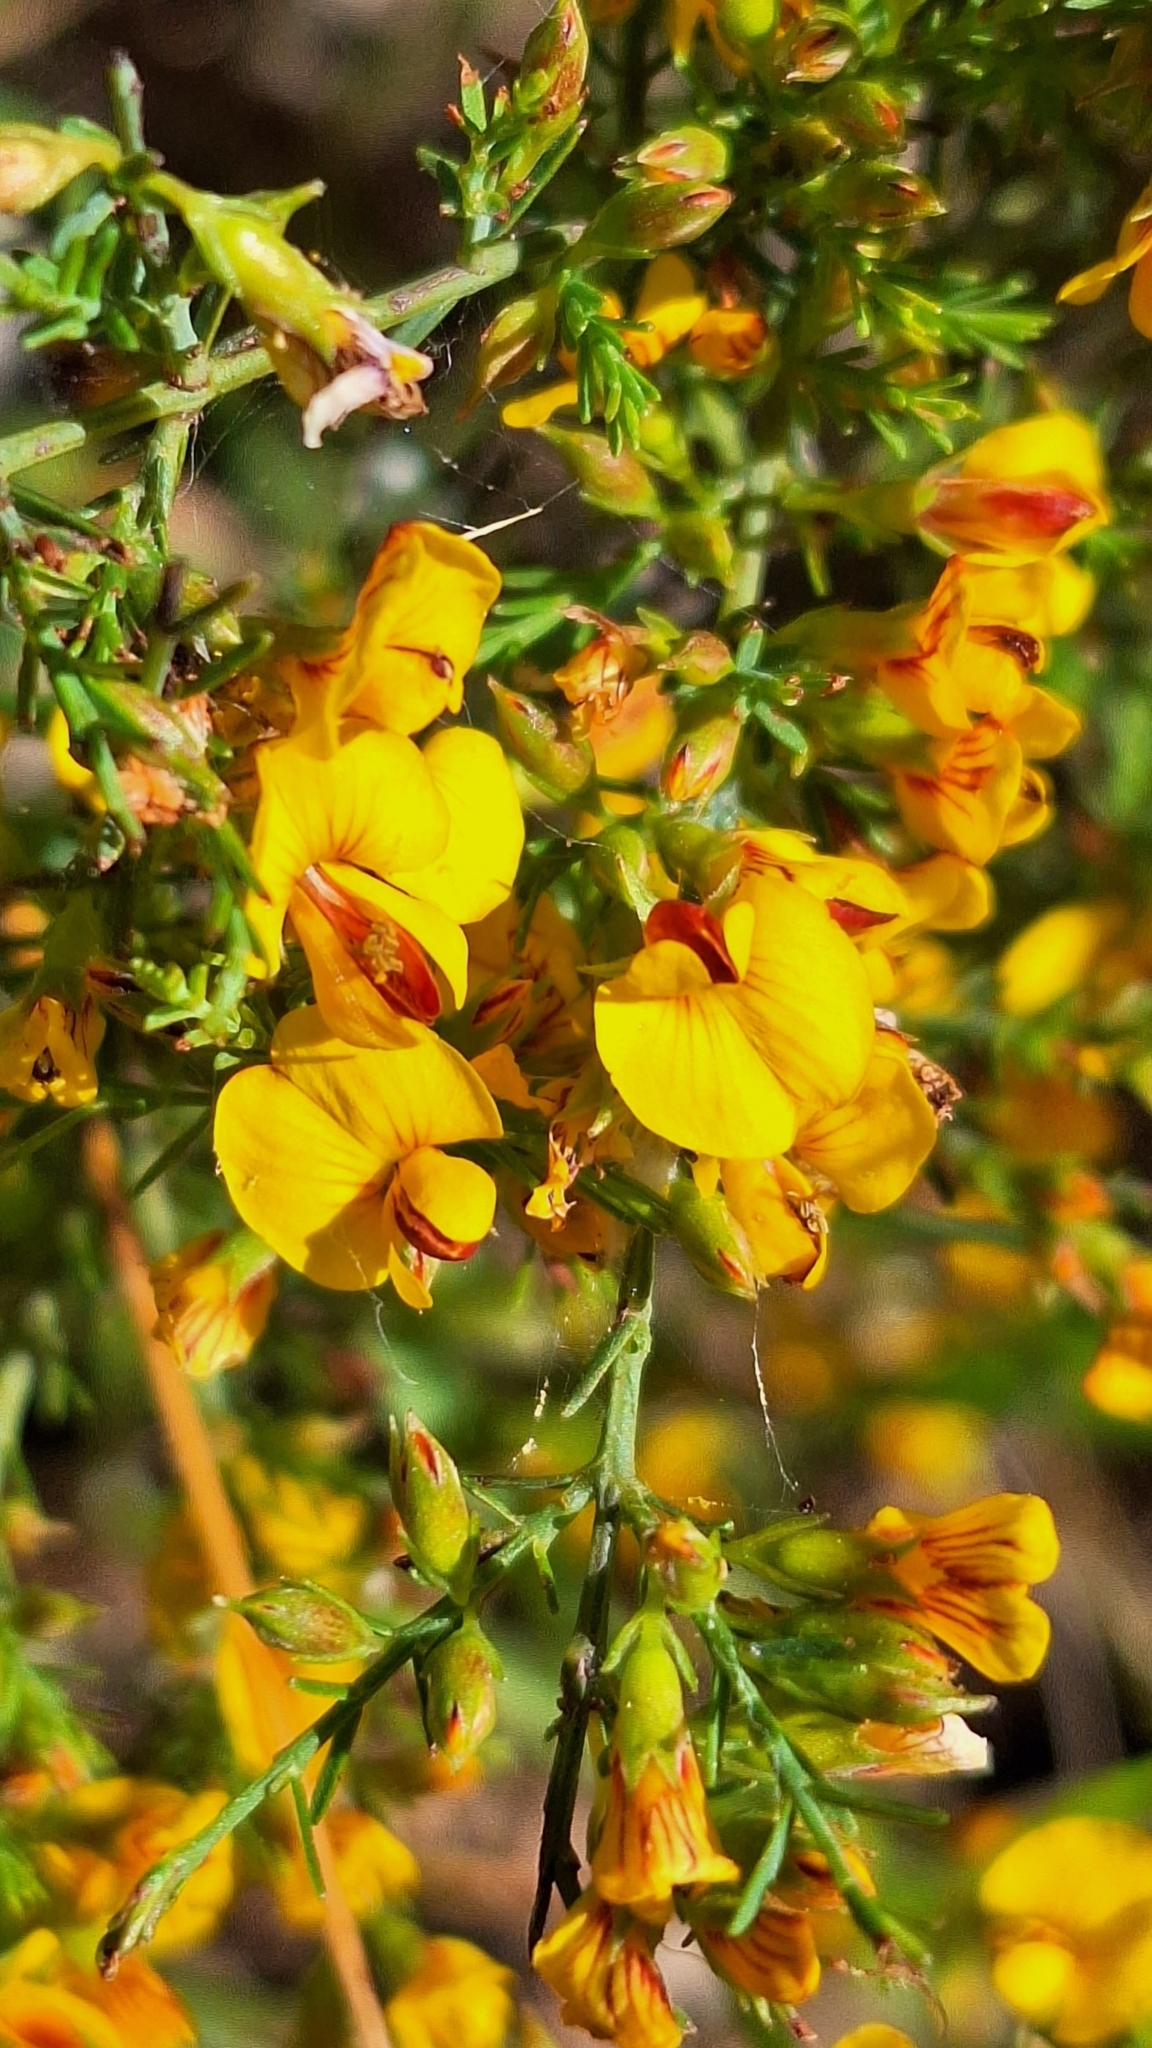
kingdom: Plantae
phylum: Tracheophyta
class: Magnoliopsida
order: Fabales
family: Fabaceae
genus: Eutaxia
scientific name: Eutaxia microphylla
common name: Mallee bush-pea
